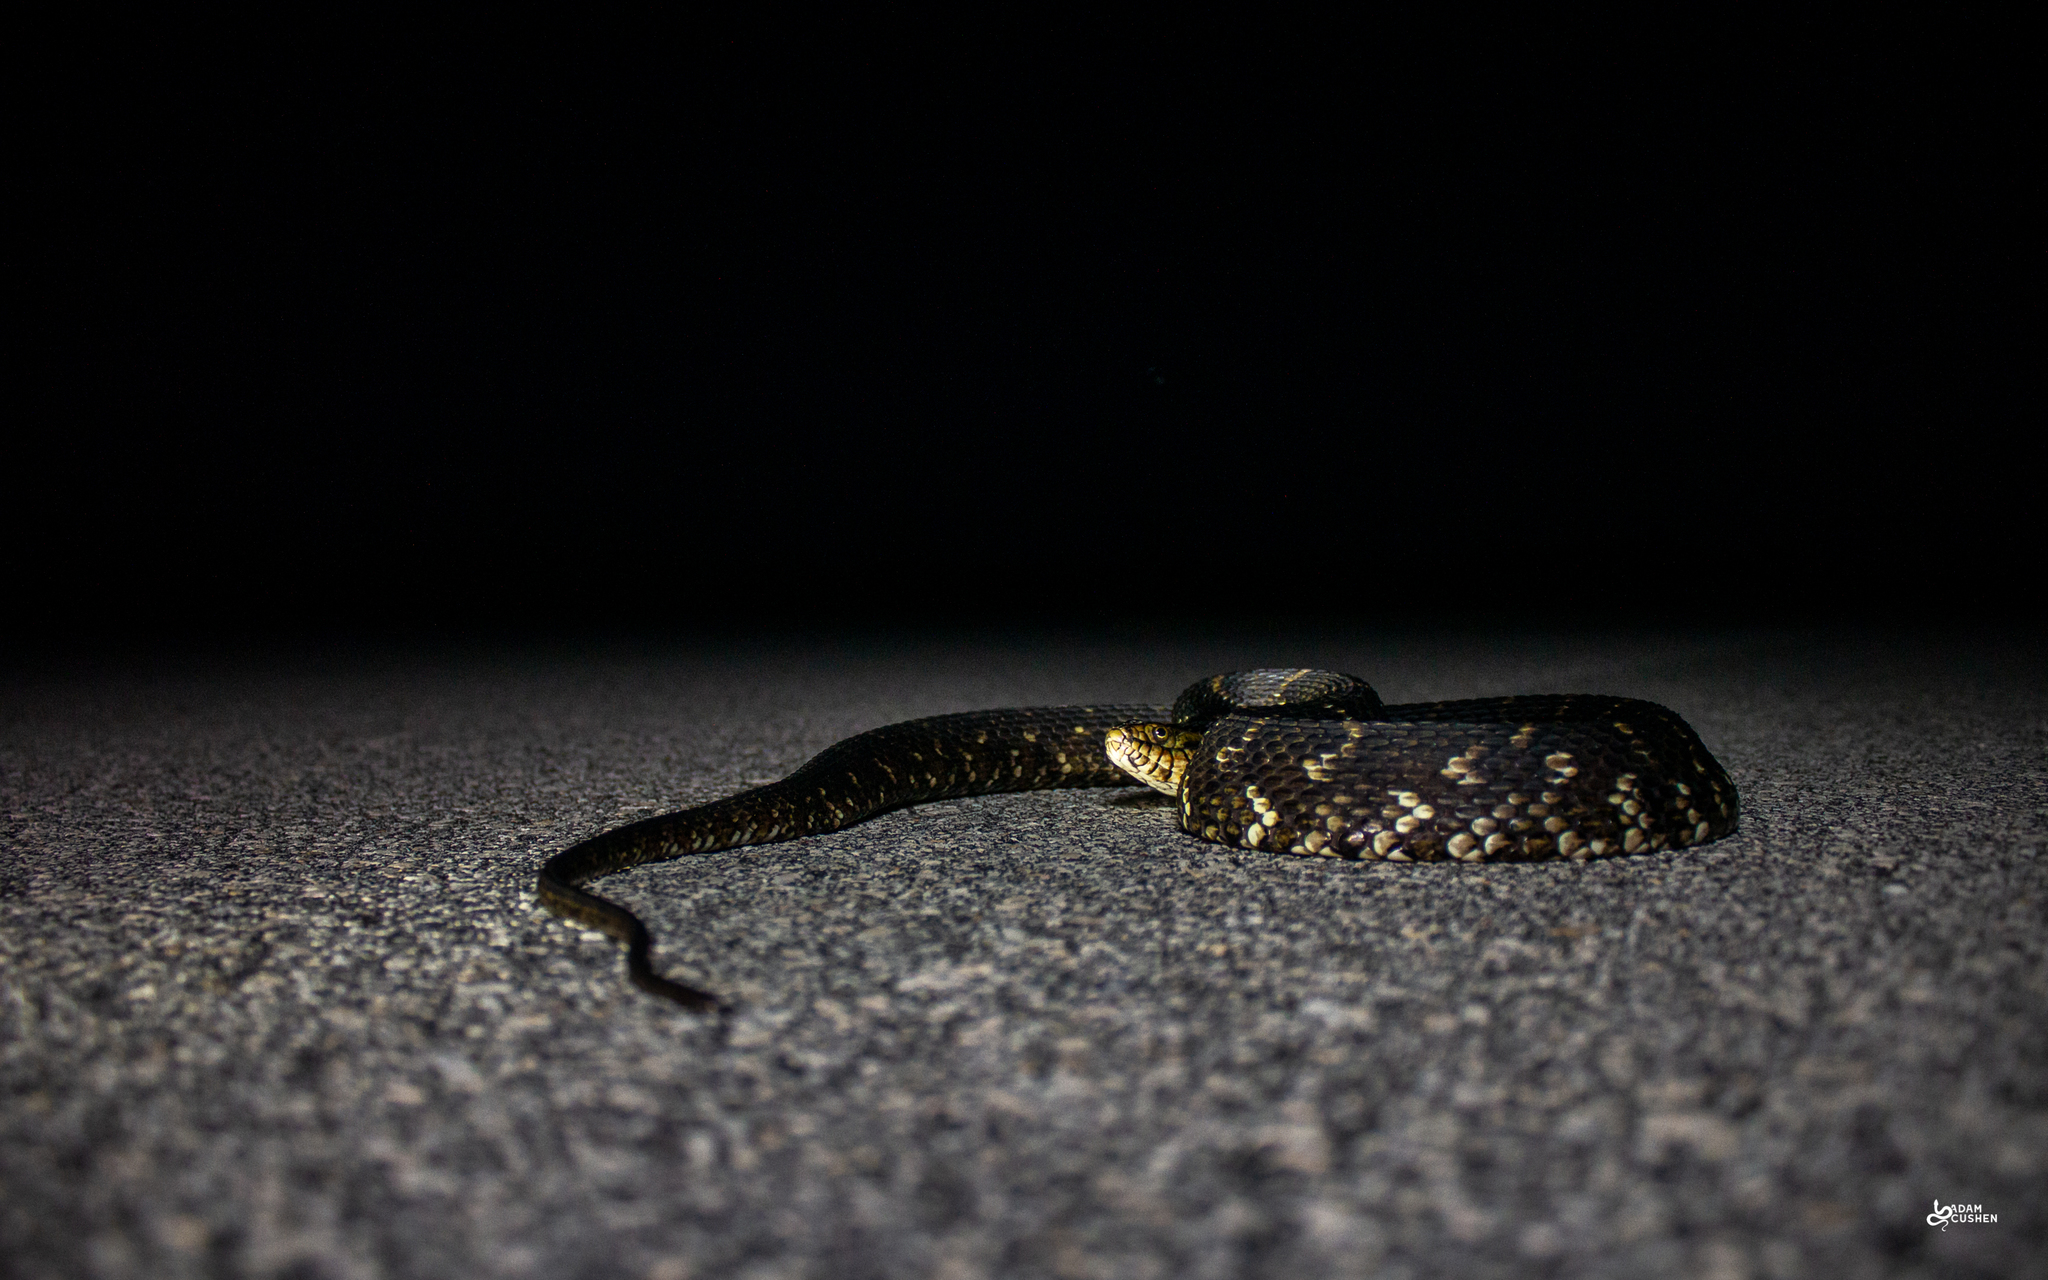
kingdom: Animalia
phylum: Chordata
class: Squamata
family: Colubridae
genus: Nerodia
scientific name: Nerodia fasciata
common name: Southern water snake
